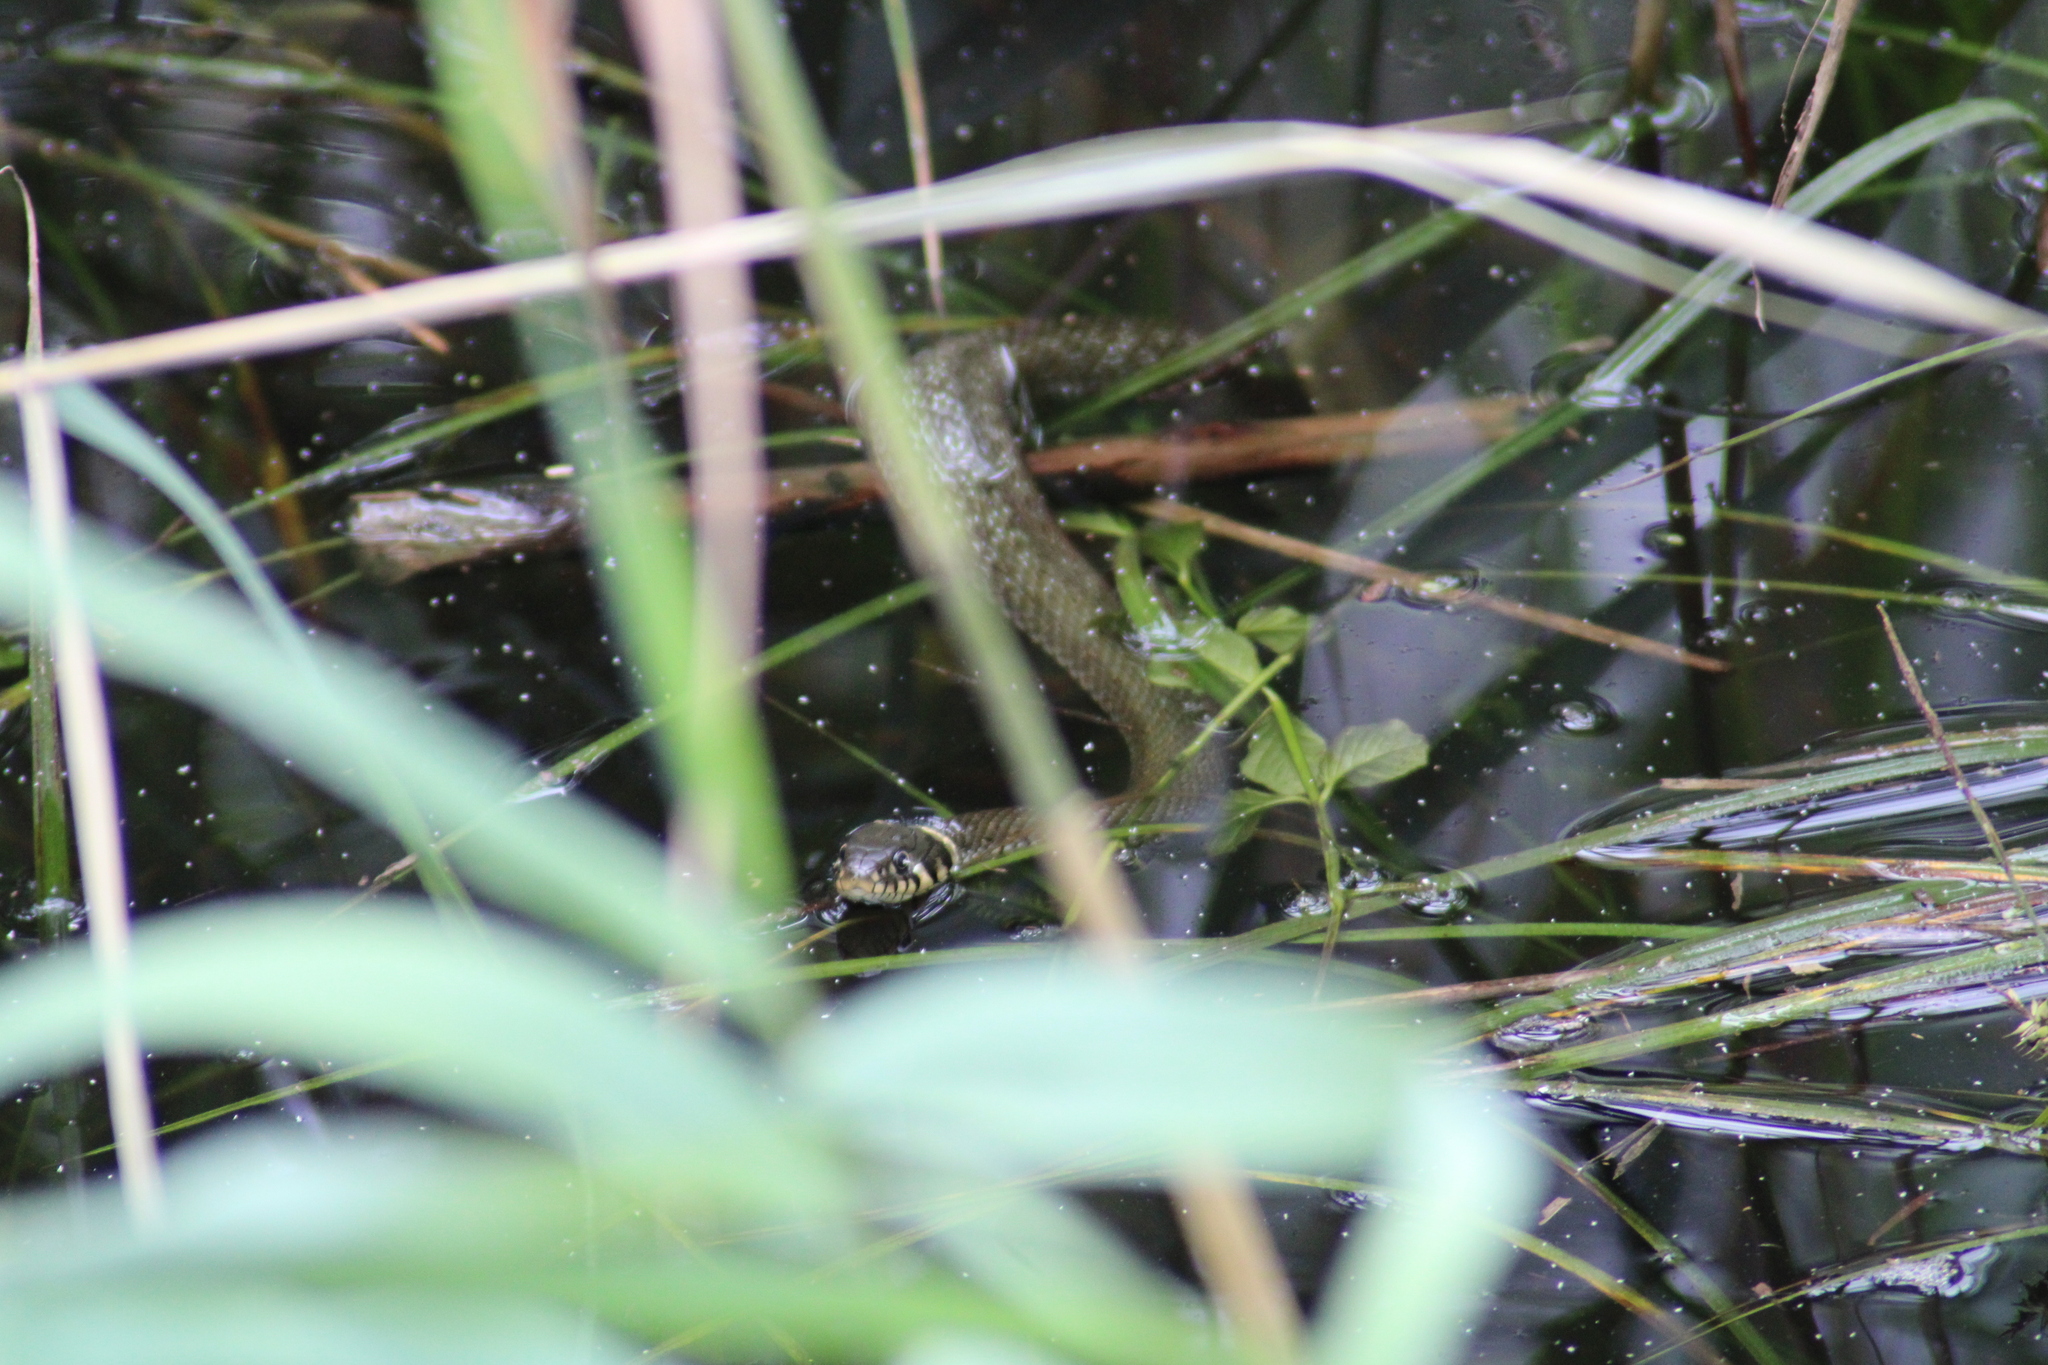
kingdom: Animalia
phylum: Chordata
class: Squamata
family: Colubridae
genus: Natrix
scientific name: Natrix natrix
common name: Grass snake
